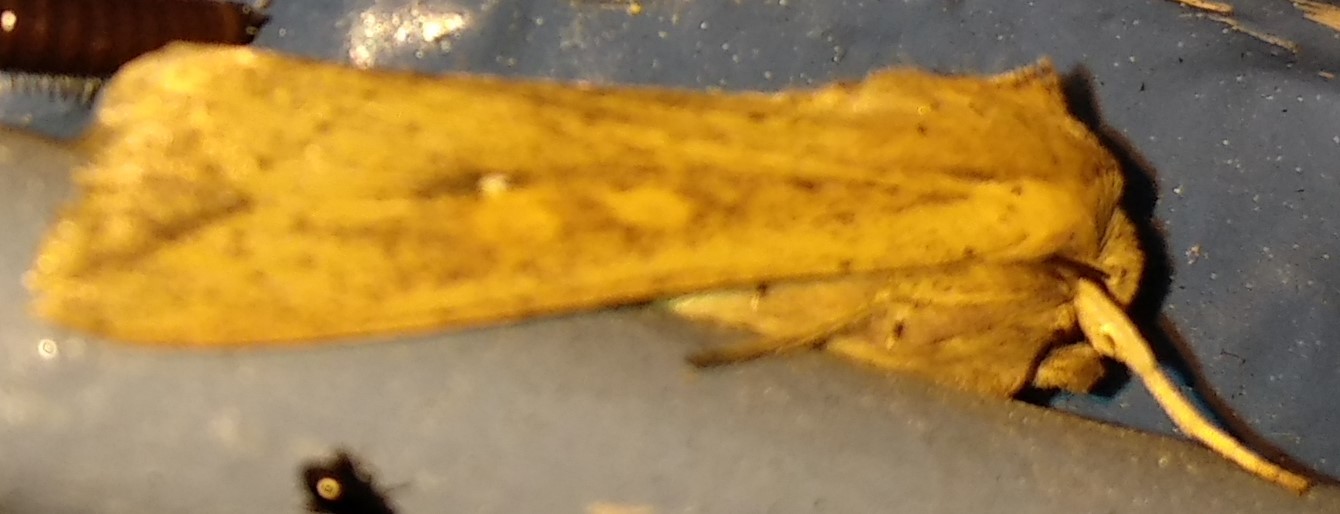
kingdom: Animalia
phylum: Arthropoda
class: Insecta
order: Lepidoptera
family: Noctuidae
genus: Mythimna
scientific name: Mythimna unipuncta
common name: White-speck
